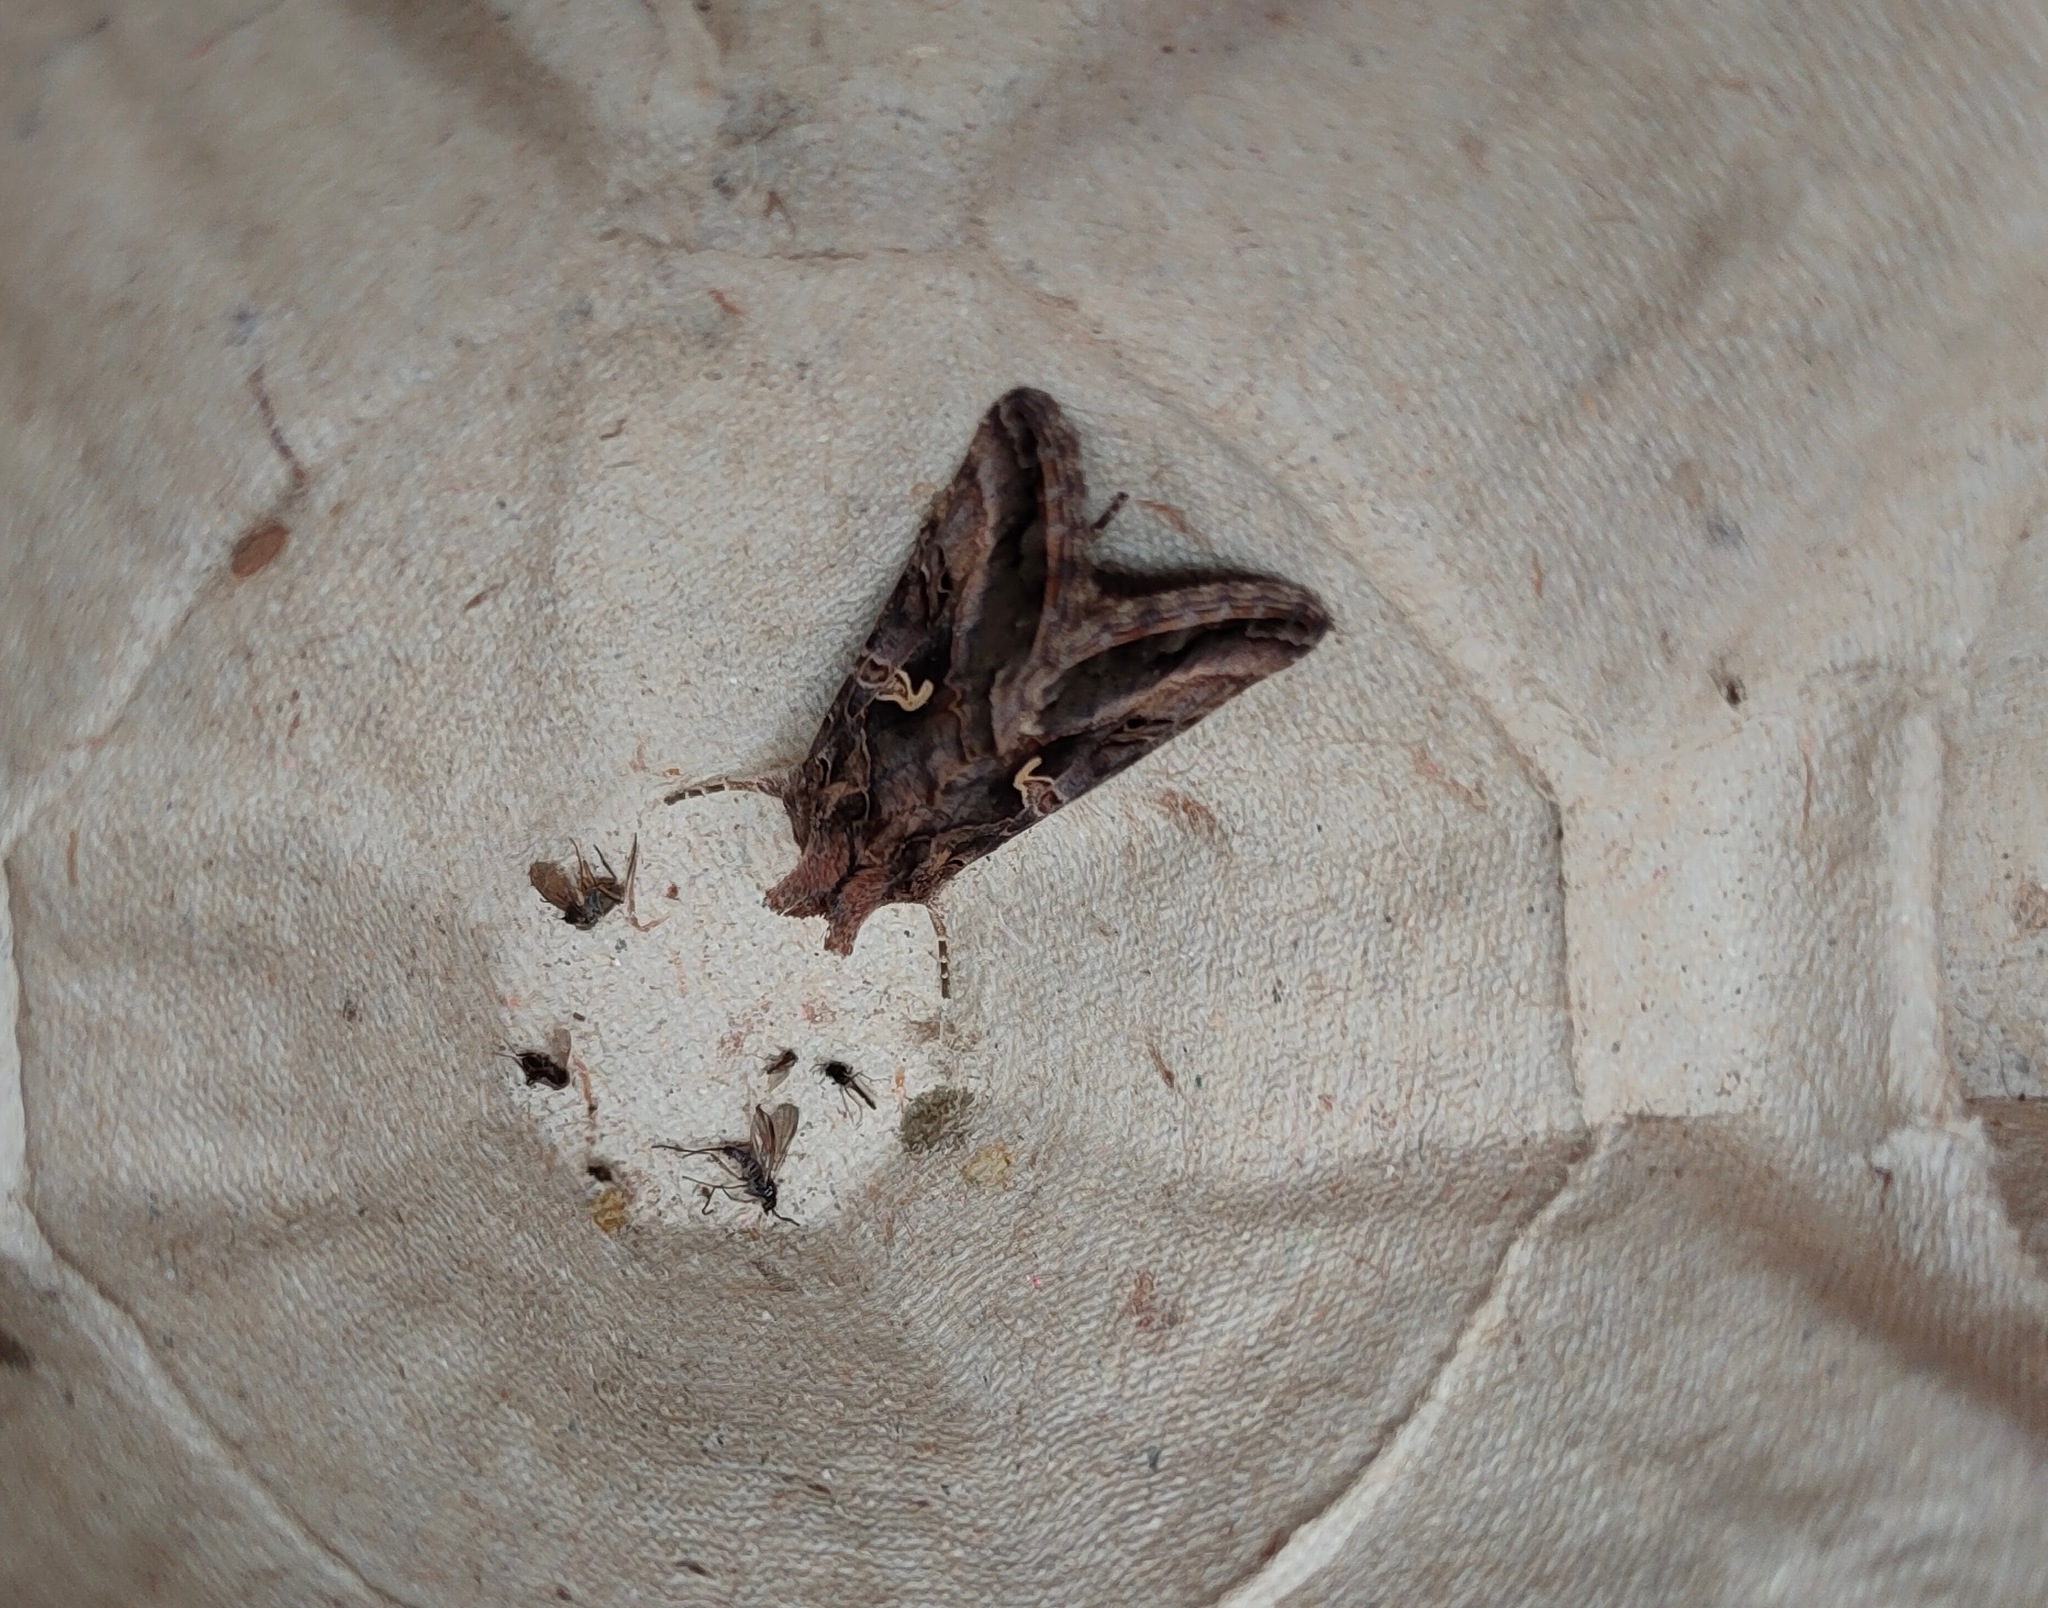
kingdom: Animalia
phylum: Arthropoda
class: Insecta
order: Lepidoptera
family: Noctuidae
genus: Autographa
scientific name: Autographa gamma
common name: Silver y
